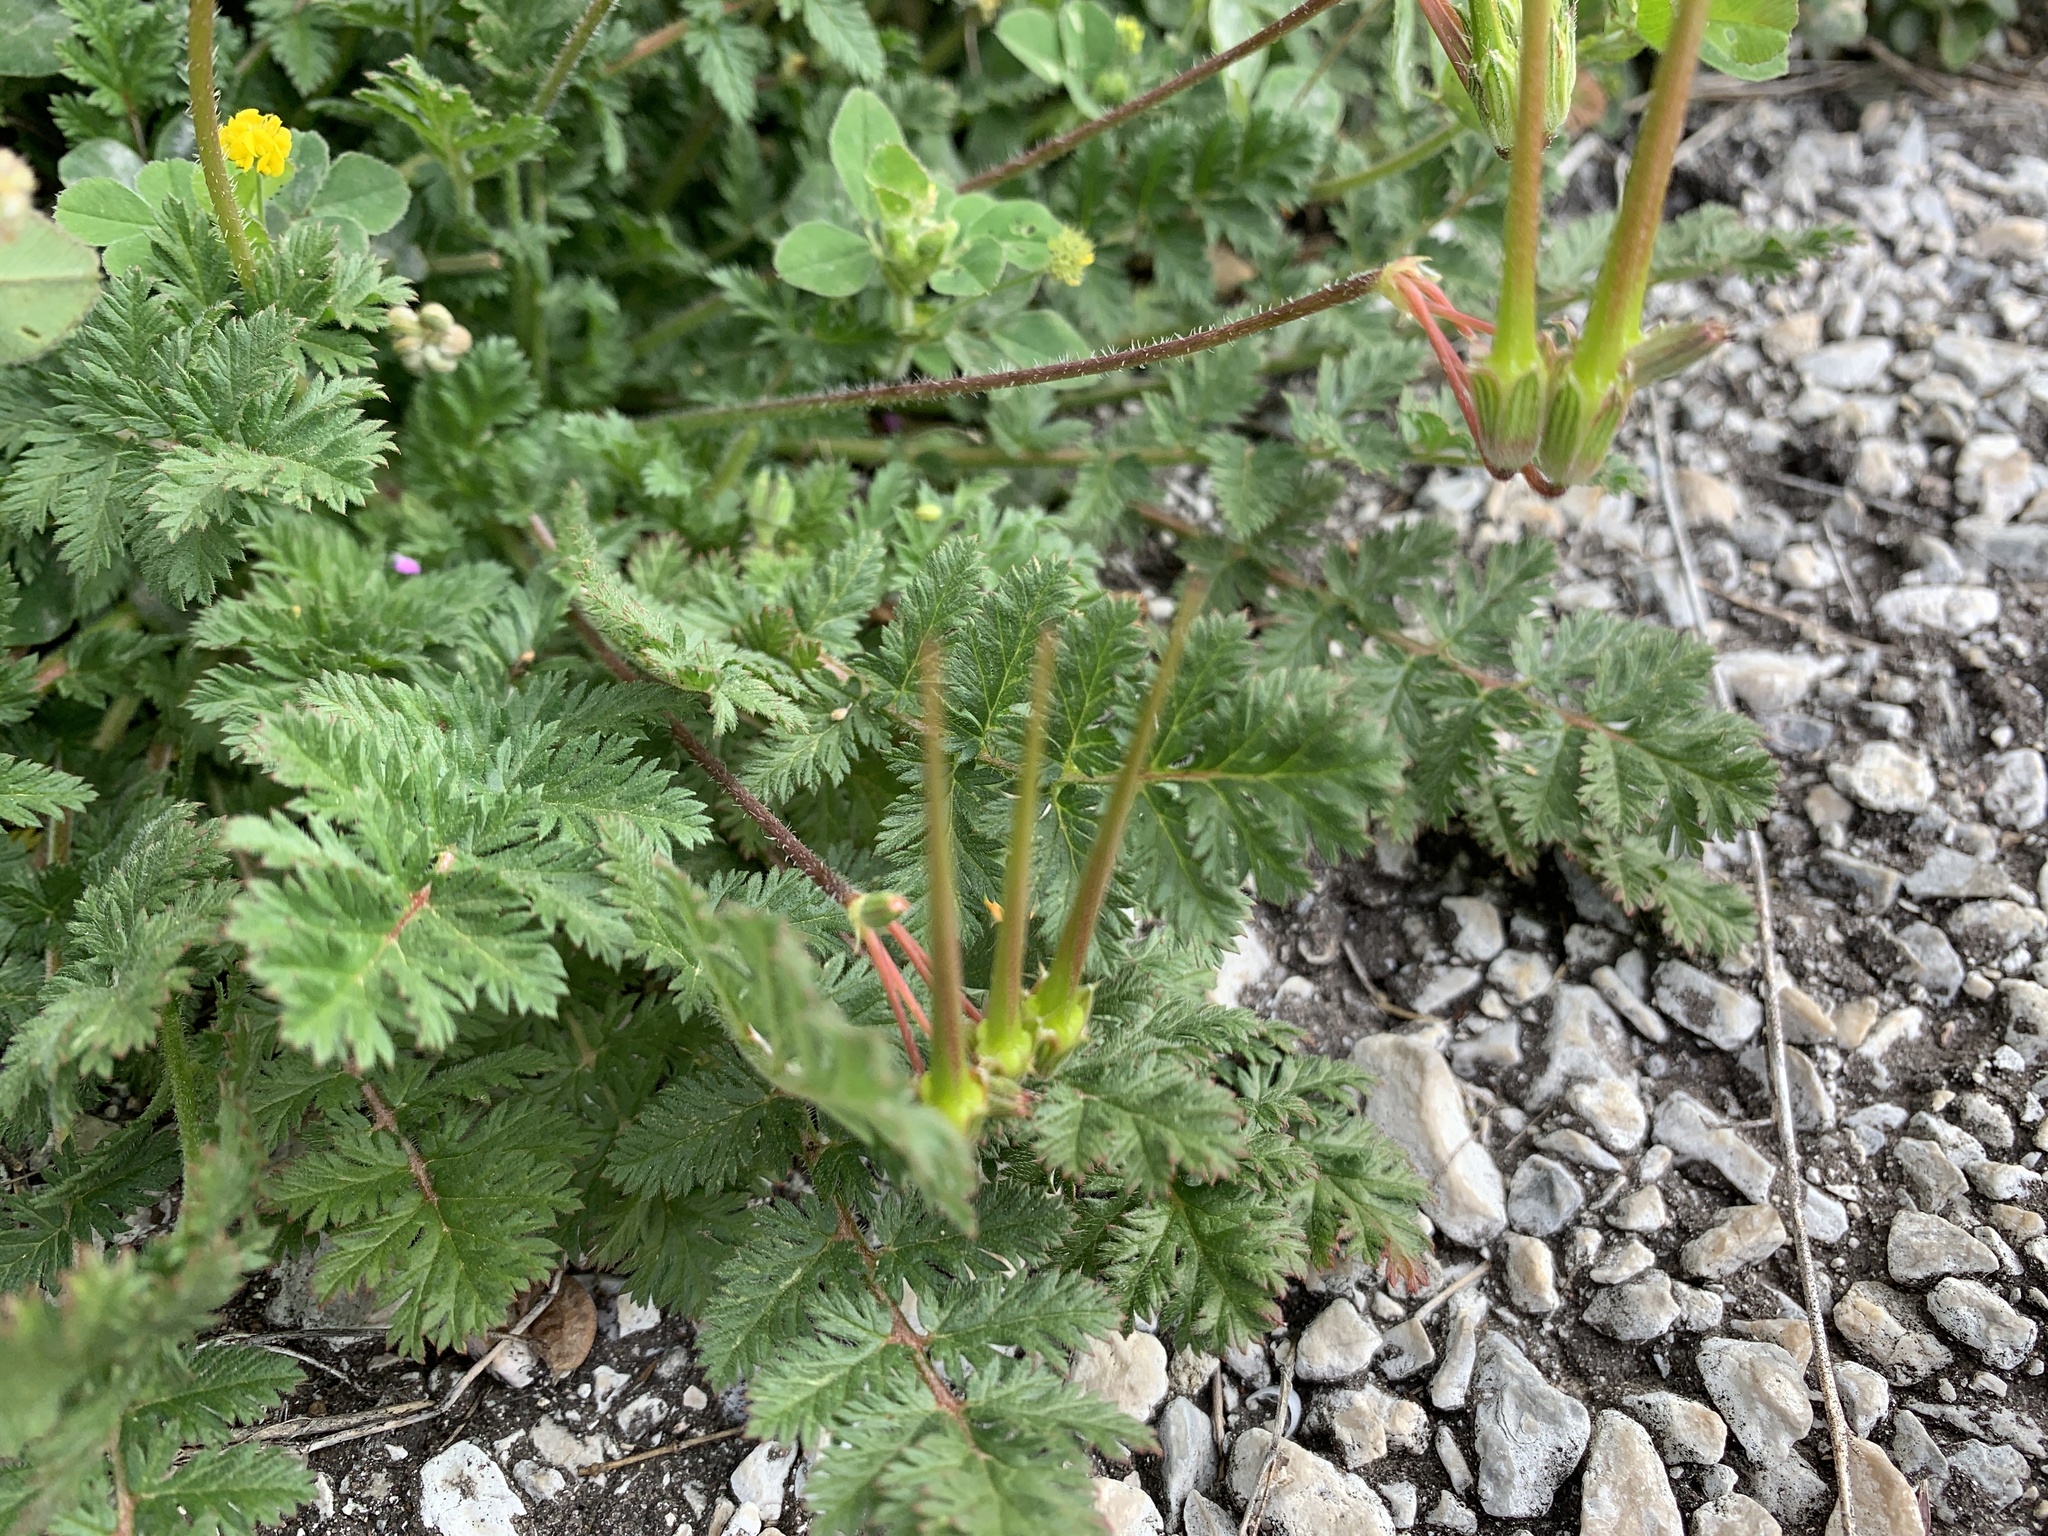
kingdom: Plantae
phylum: Tracheophyta
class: Magnoliopsida
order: Geraniales
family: Geraniaceae
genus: Erodium
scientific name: Erodium cicutarium
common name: Common stork's-bill
